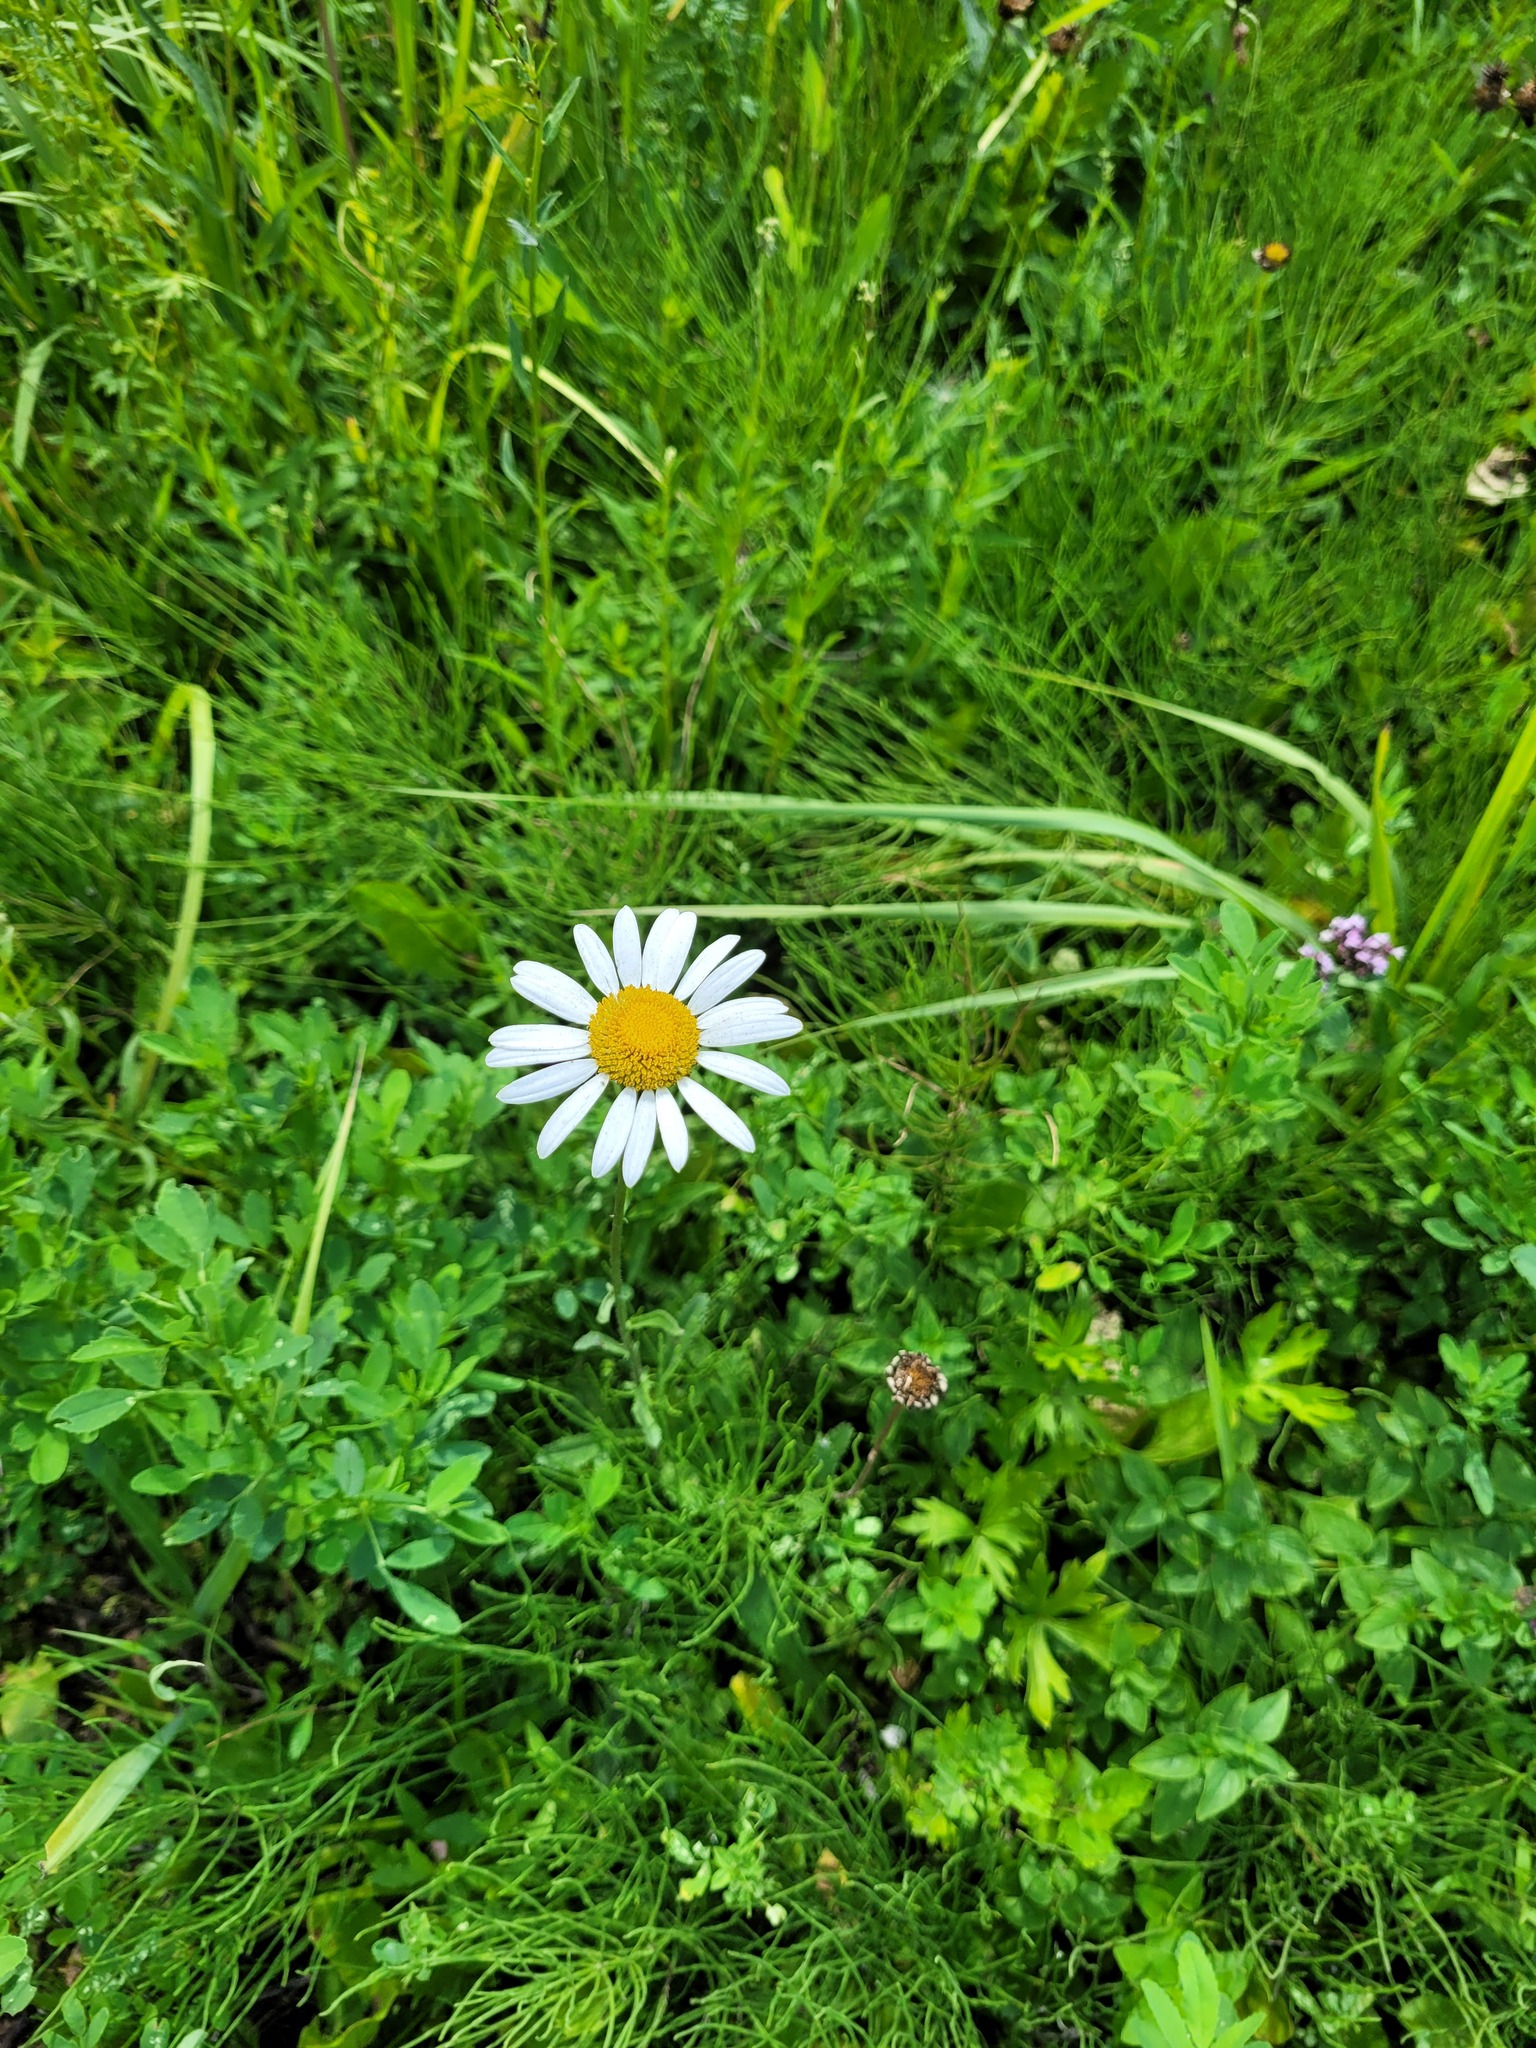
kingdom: Plantae
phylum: Tracheophyta
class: Magnoliopsida
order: Asterales
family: Asteraceae
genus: Leucanthemum
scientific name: Leucanthemum vulgare
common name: Oxeye daisy
